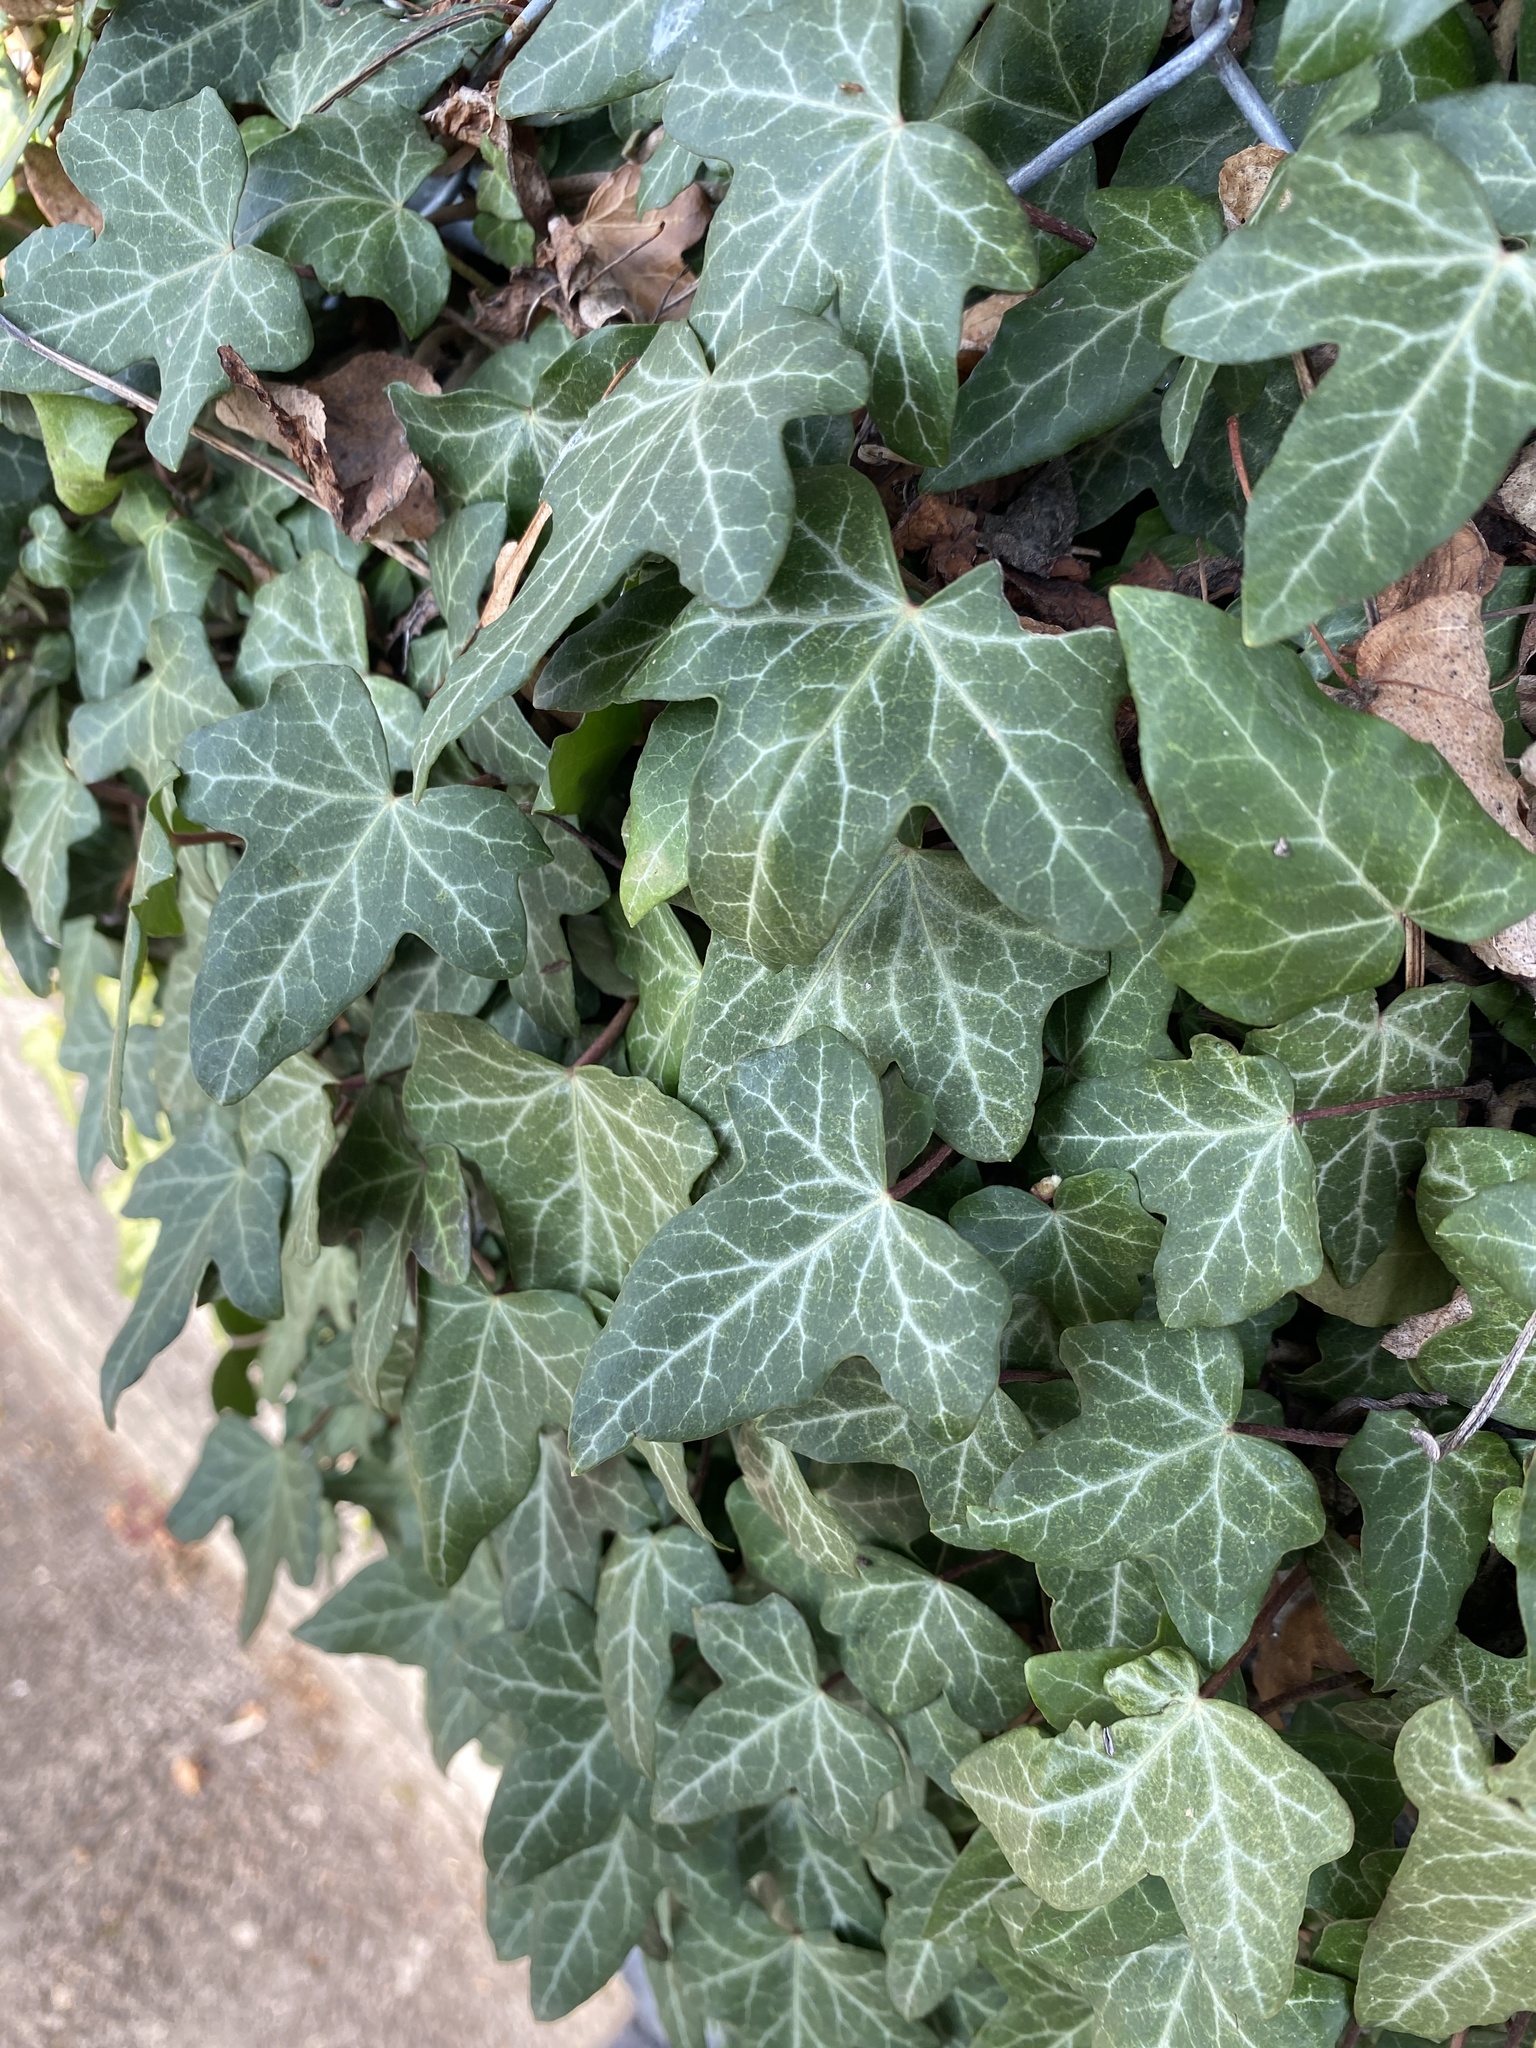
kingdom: Plantae
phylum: Tracheophyta
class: Magnoliopsida
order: Apiales
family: Araliaceae
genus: Hedera
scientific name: Hedera helix
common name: Ivy
